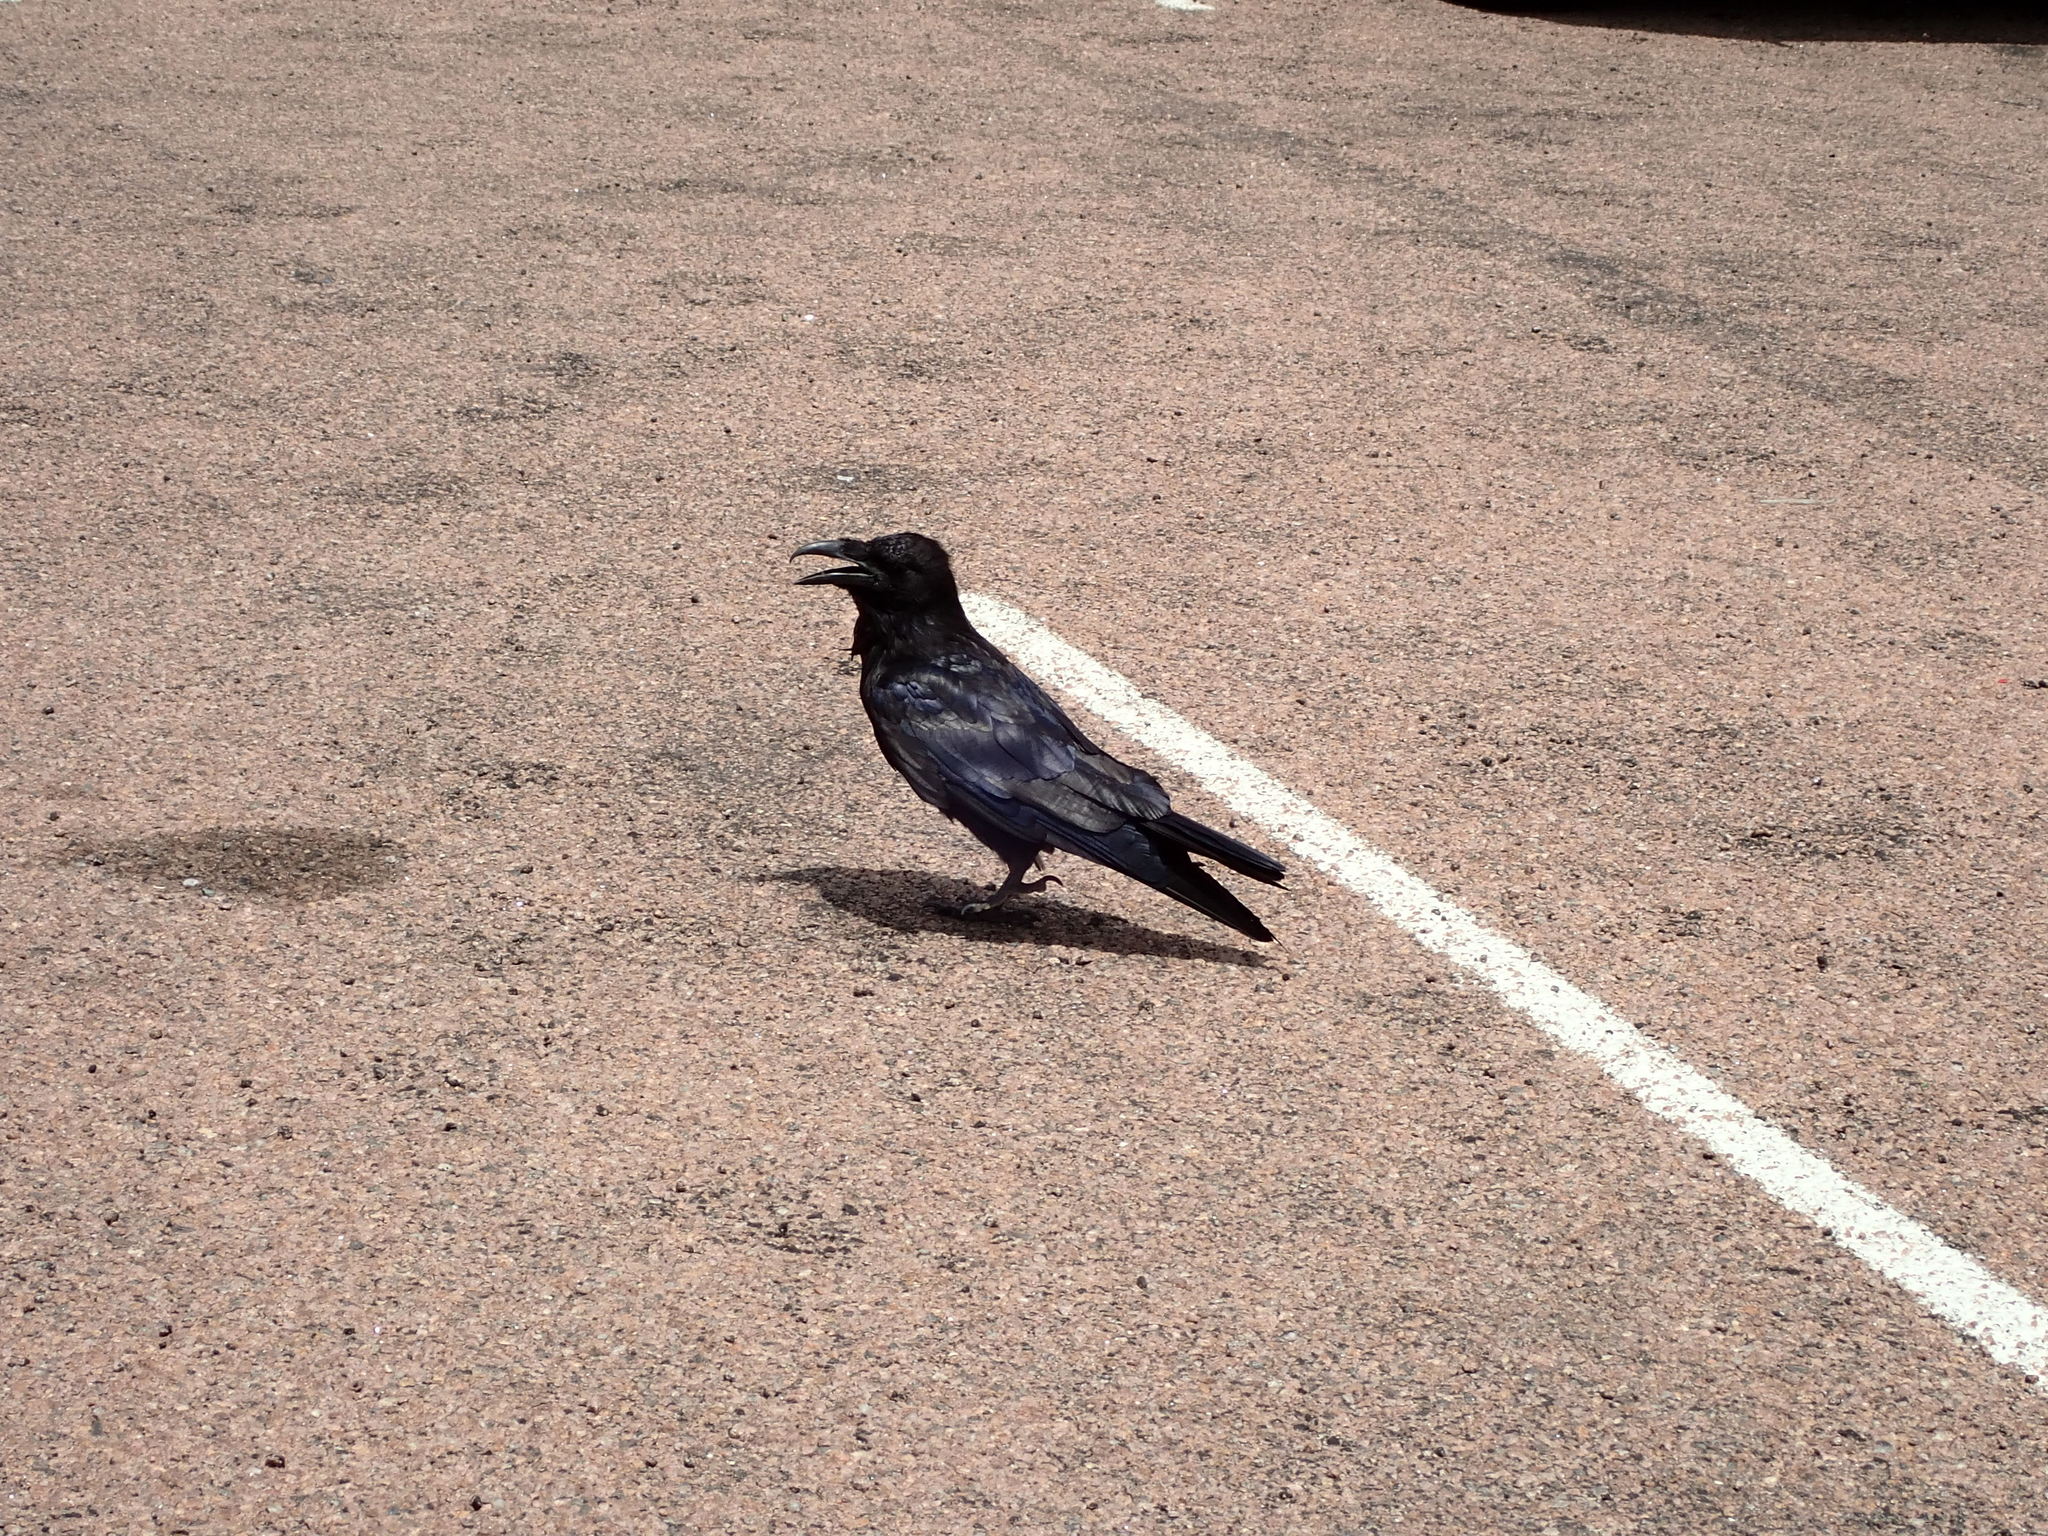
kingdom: Animalia
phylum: Chordata
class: Aves
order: Passeriformes
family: Corvidae
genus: Corvus
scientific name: Corvus corax
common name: Common raven
